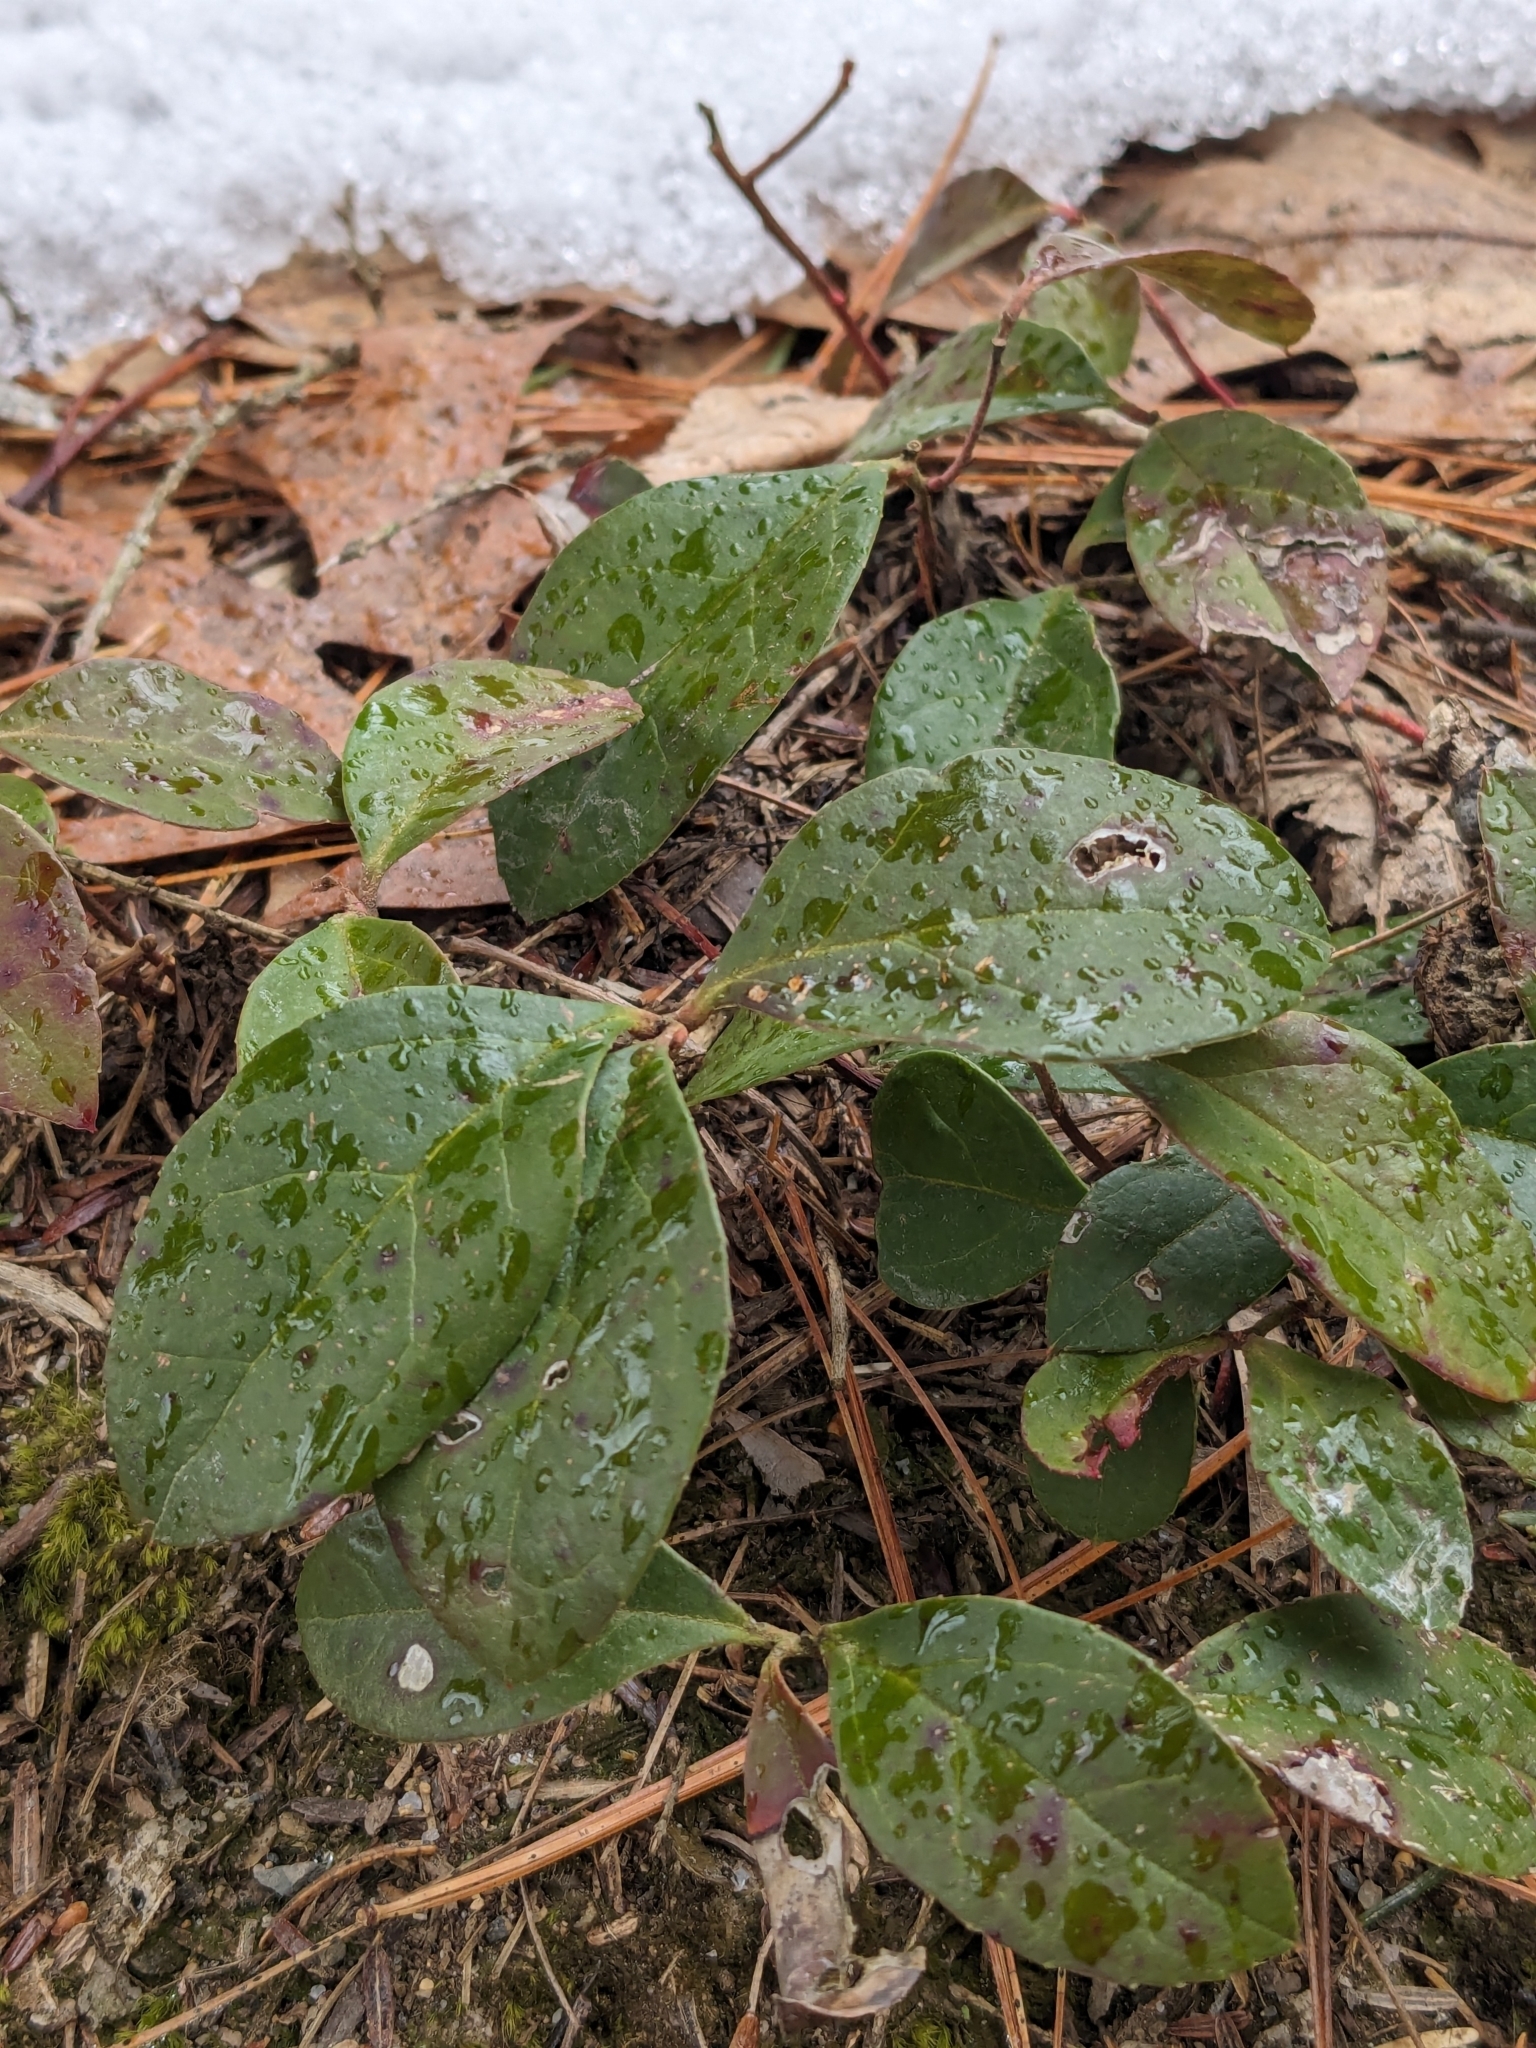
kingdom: Plantae
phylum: Tracheophyta
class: Magnoliopsida
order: Ericales
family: Ericaceae
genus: Gaultheria
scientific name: Gaultheria procumbens
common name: Checkerberry
